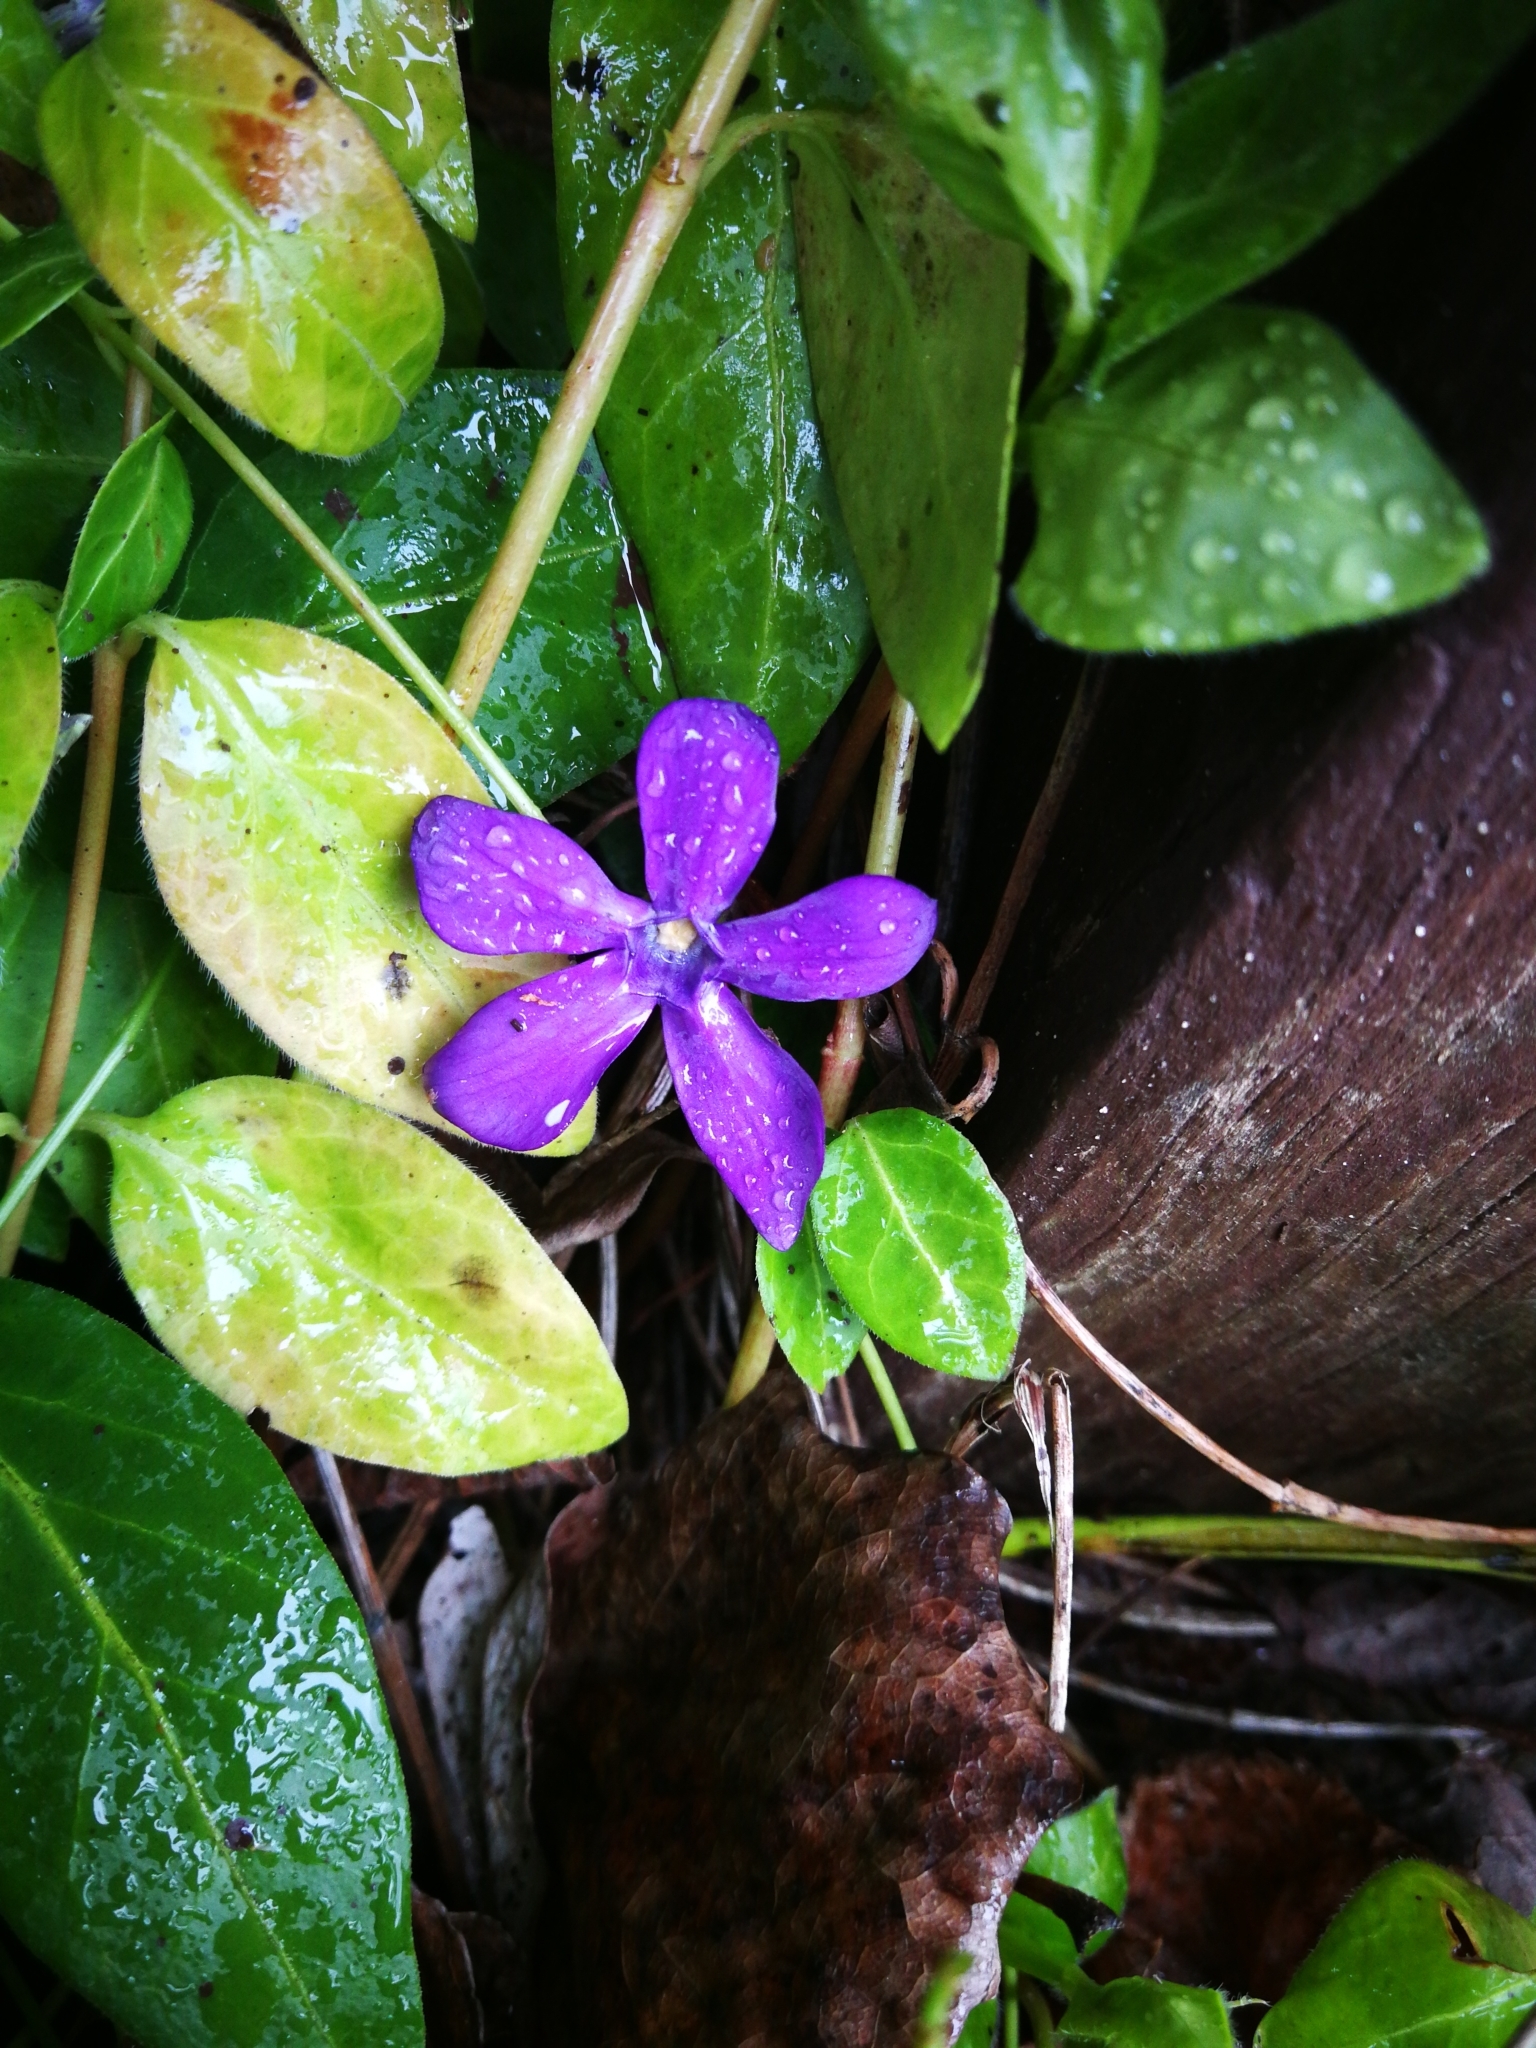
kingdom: Plantae
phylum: Tracheophyta
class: Magnoliopsida
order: Gentianales
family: Apocynaceae
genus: Vinca
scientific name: Vinca major
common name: Greater periwinkle
